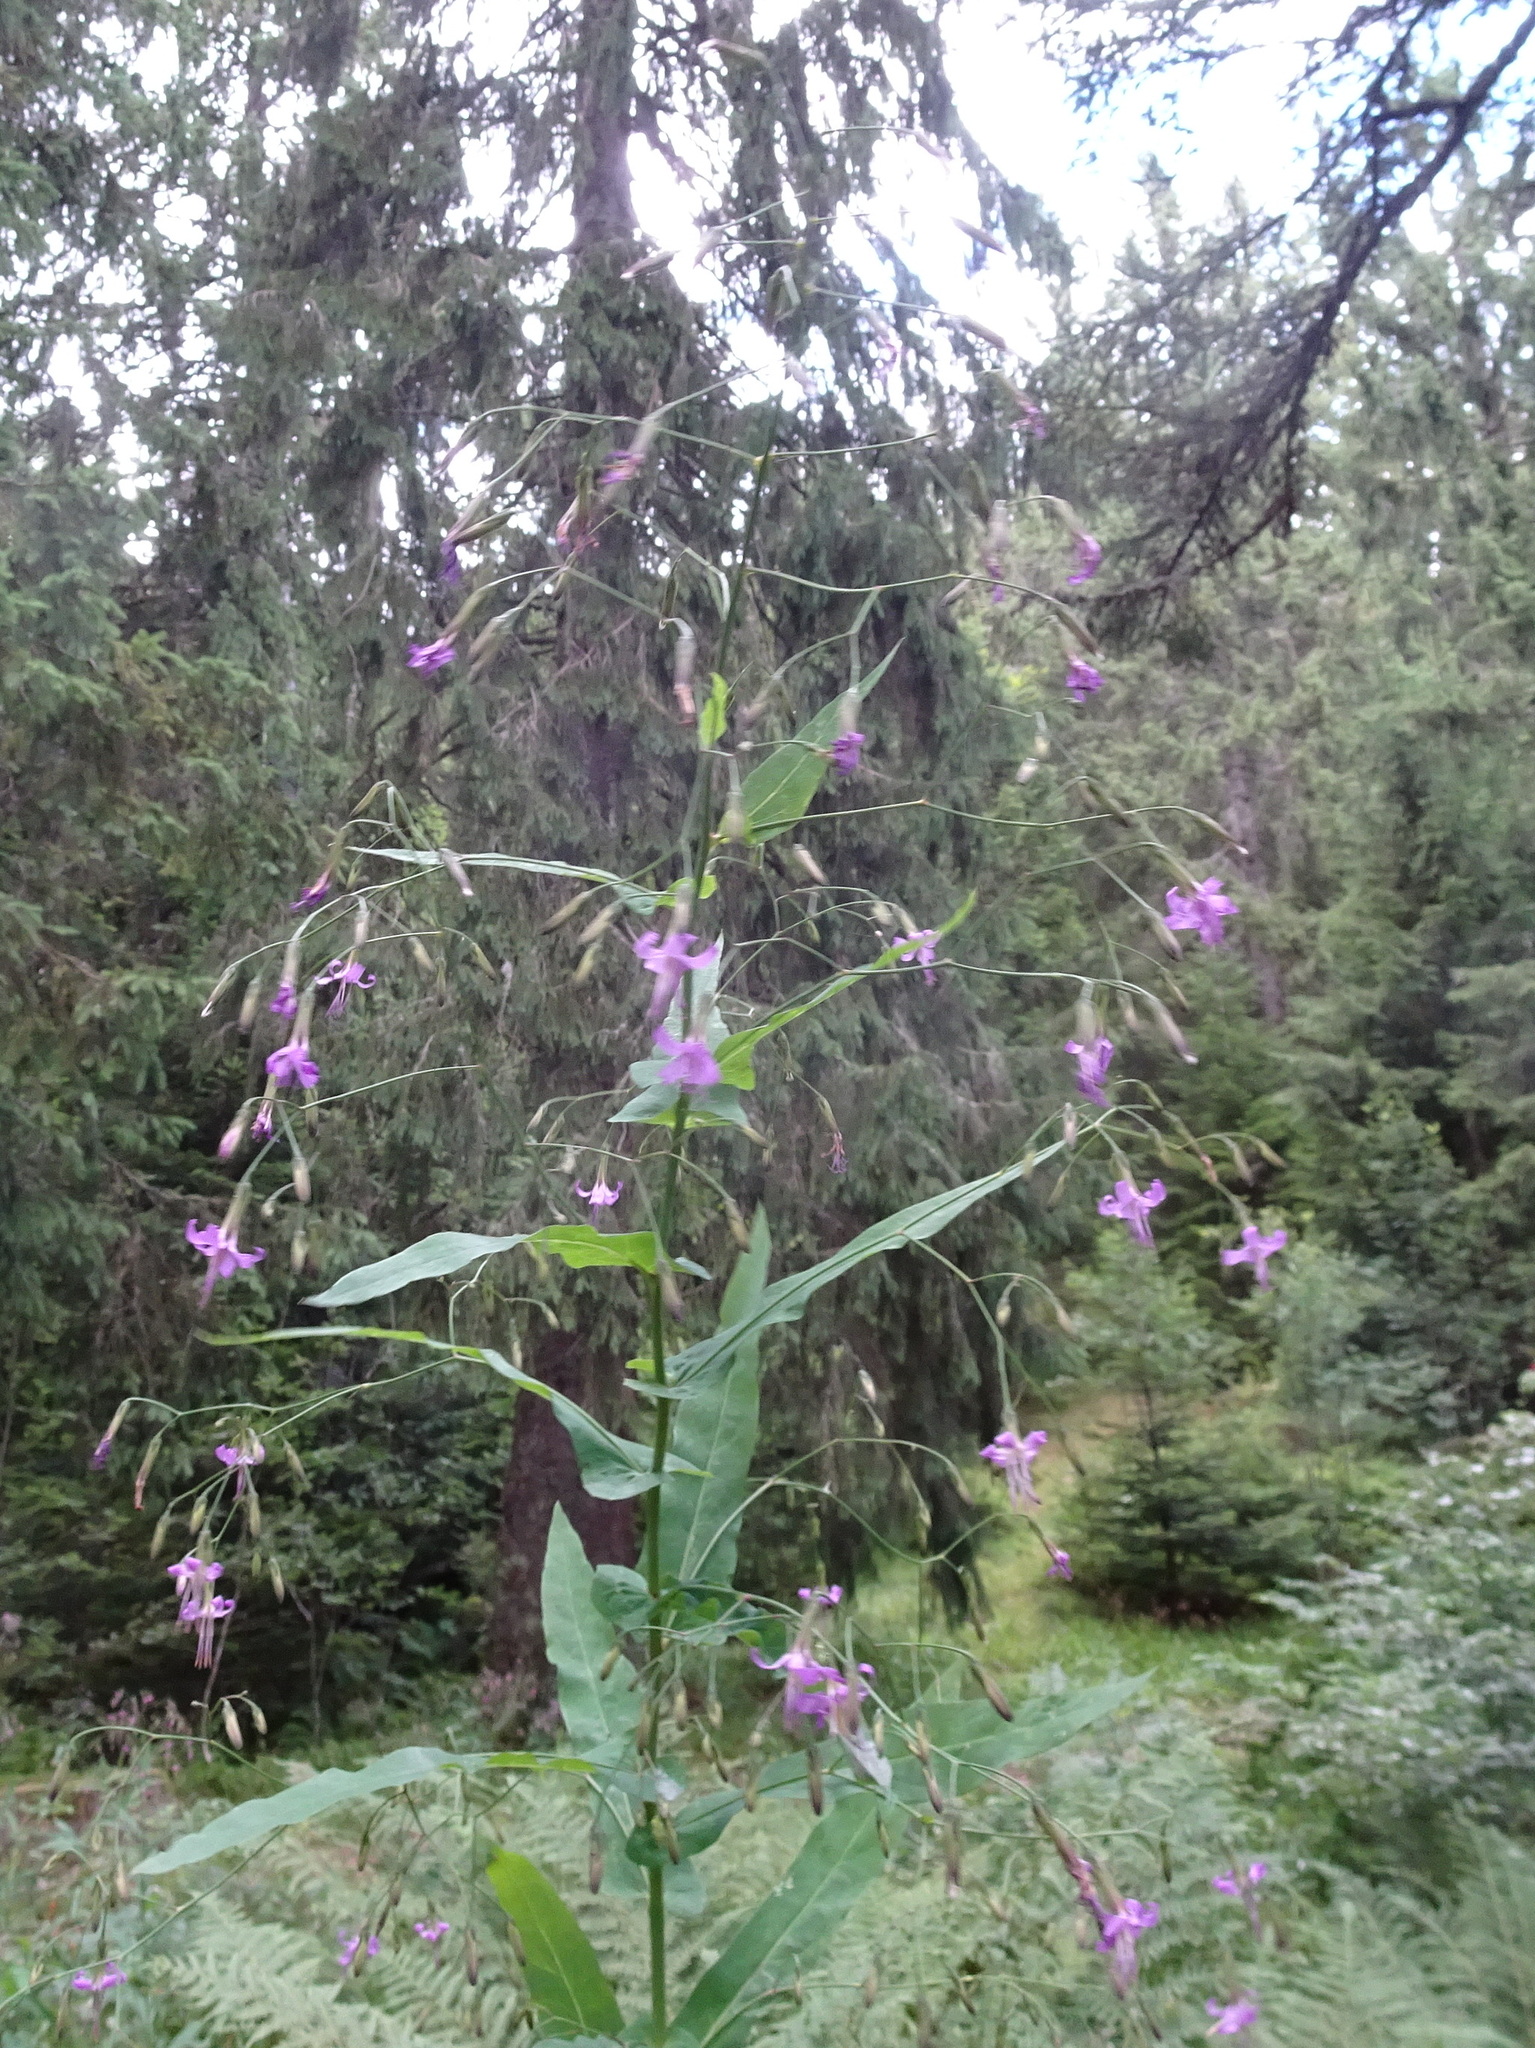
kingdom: Plantae
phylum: Tracheophyta
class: Magnoliopsida
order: Asterales
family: Asteraceae
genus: Prenanthes
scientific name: Prenanthes purpurea
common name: Purple lettuce
